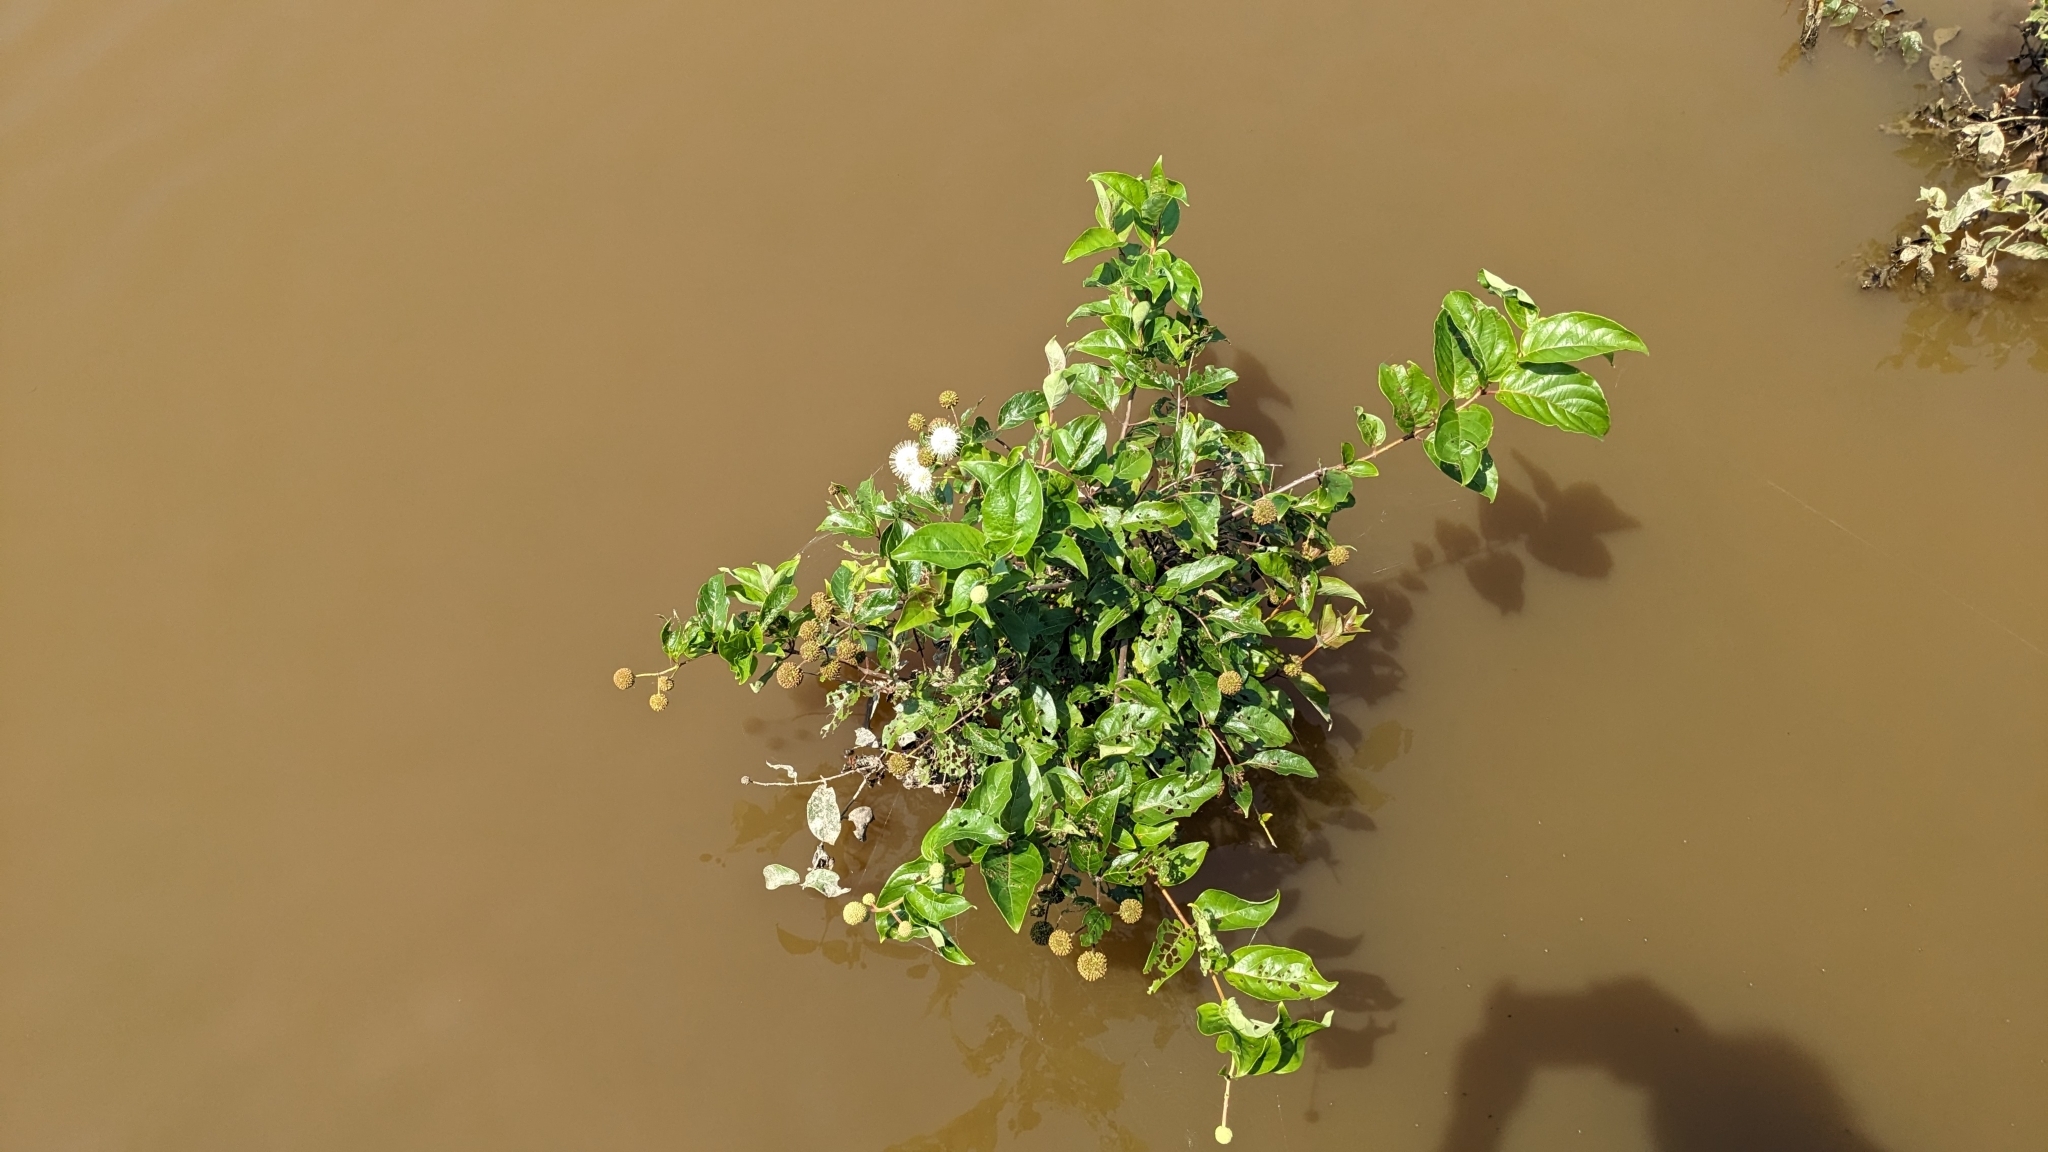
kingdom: Plantae
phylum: Tracheophyta
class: Magnoliopsida
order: Gentianales
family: Rubiaceae
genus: Cephalanthus
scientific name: Cephalanthus occidentalis
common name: Button-willow
